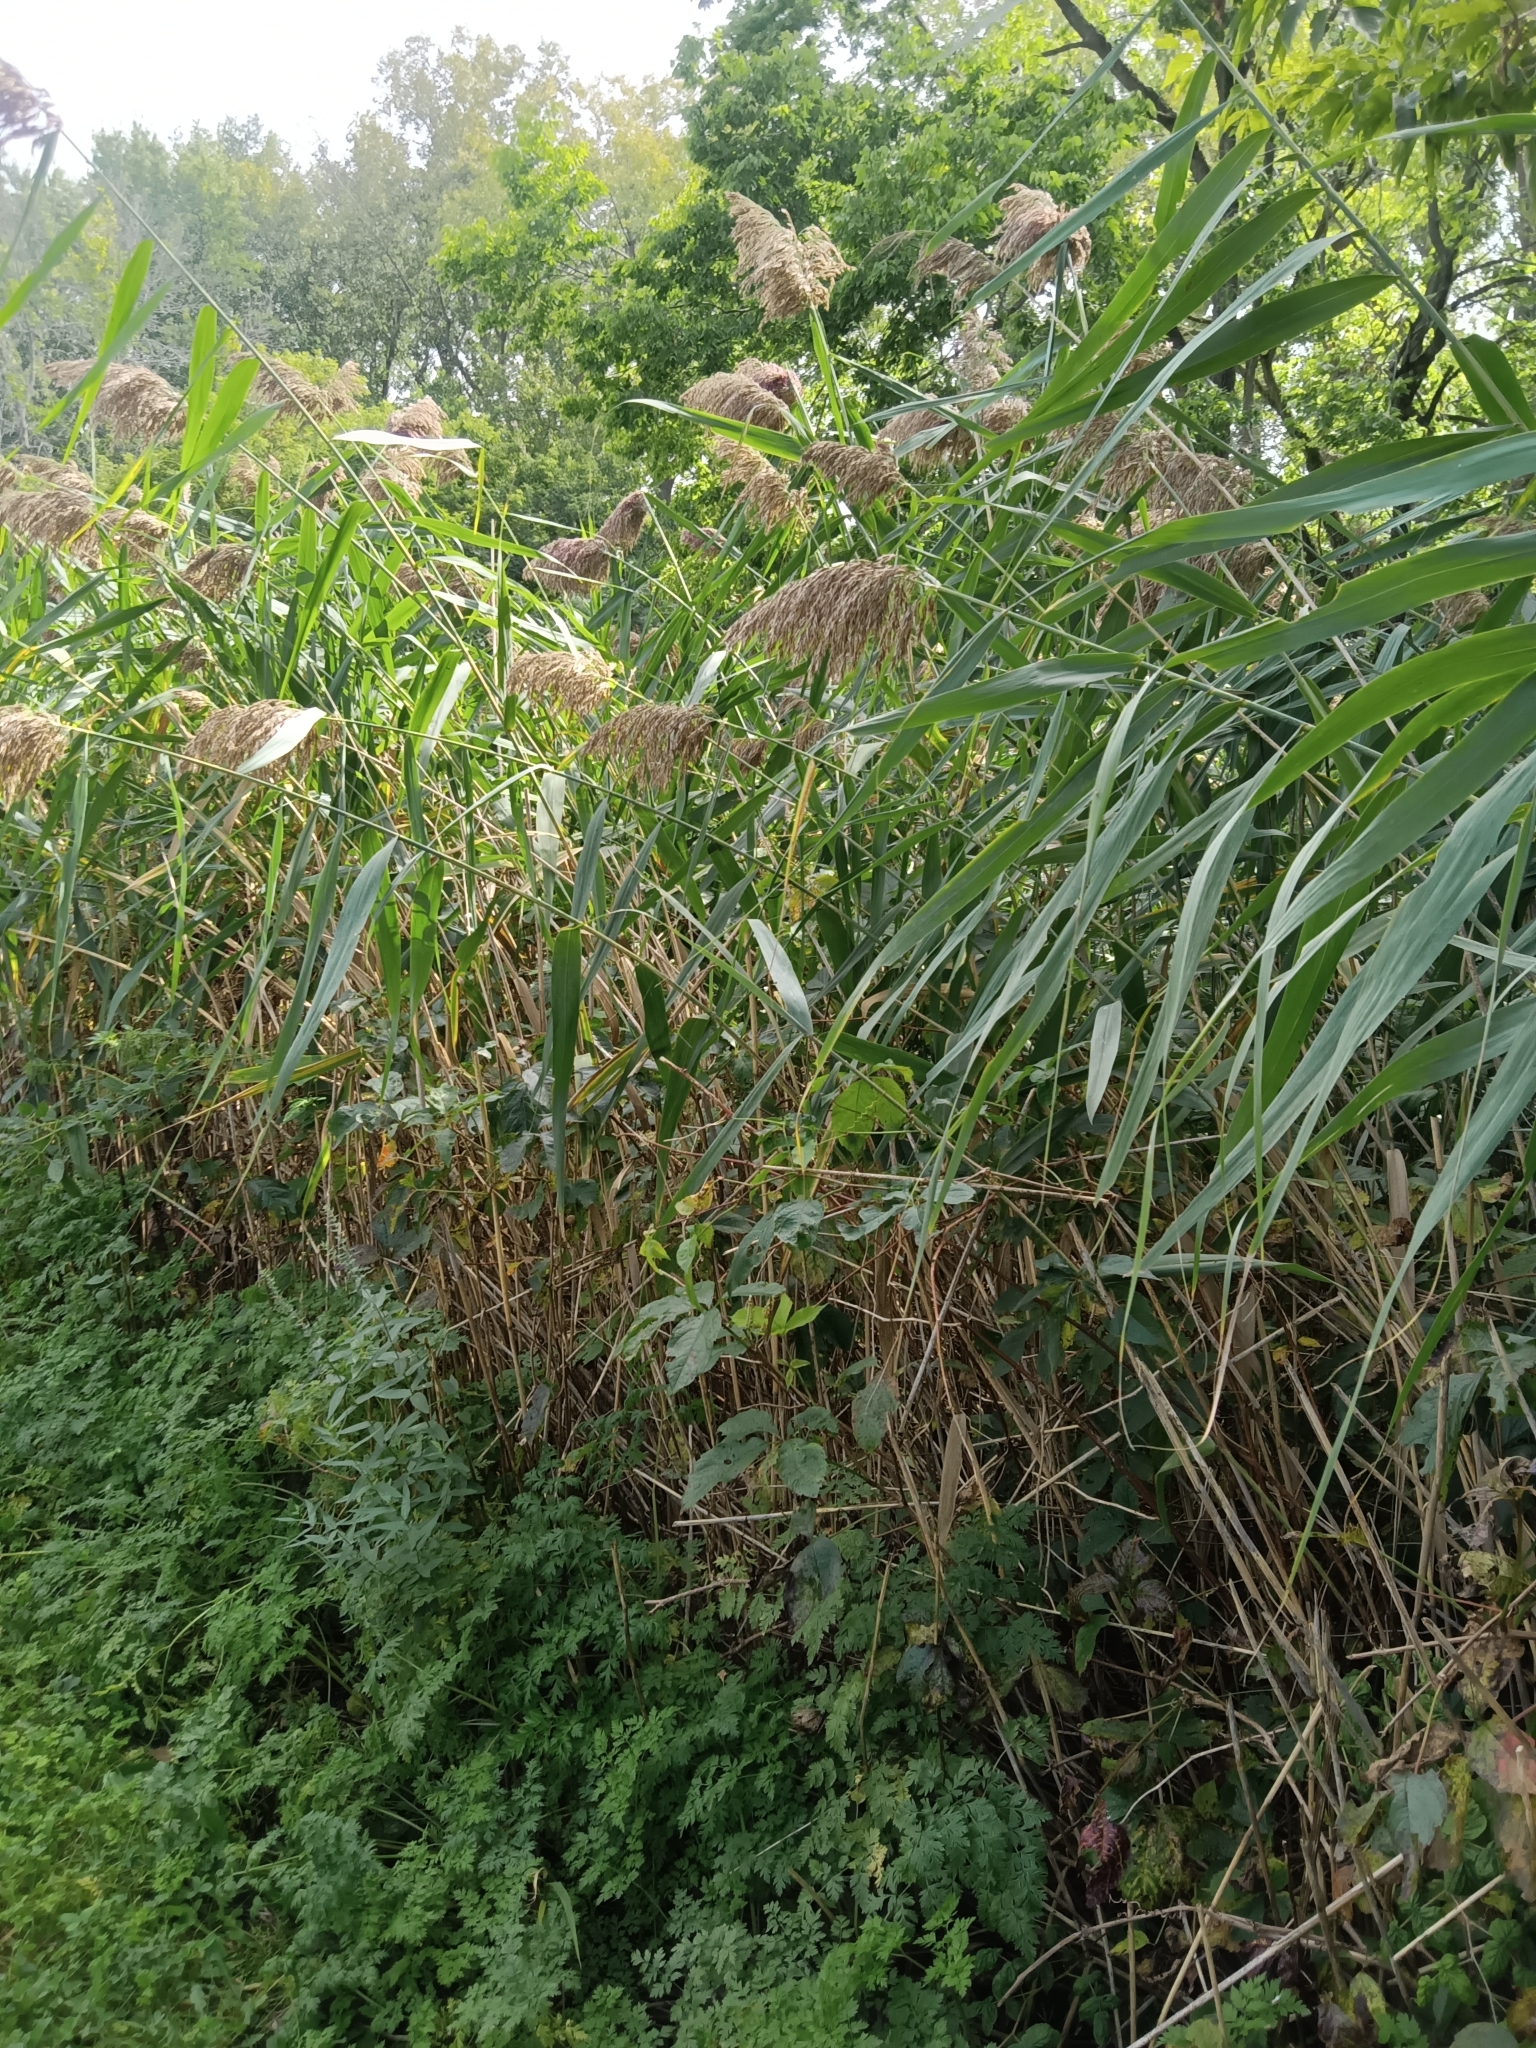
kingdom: Plantae
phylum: Tracheophyta
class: Liliopsida
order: Poales
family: Poaceae
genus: Phragmites
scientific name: Phragmites australis
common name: Common reed
